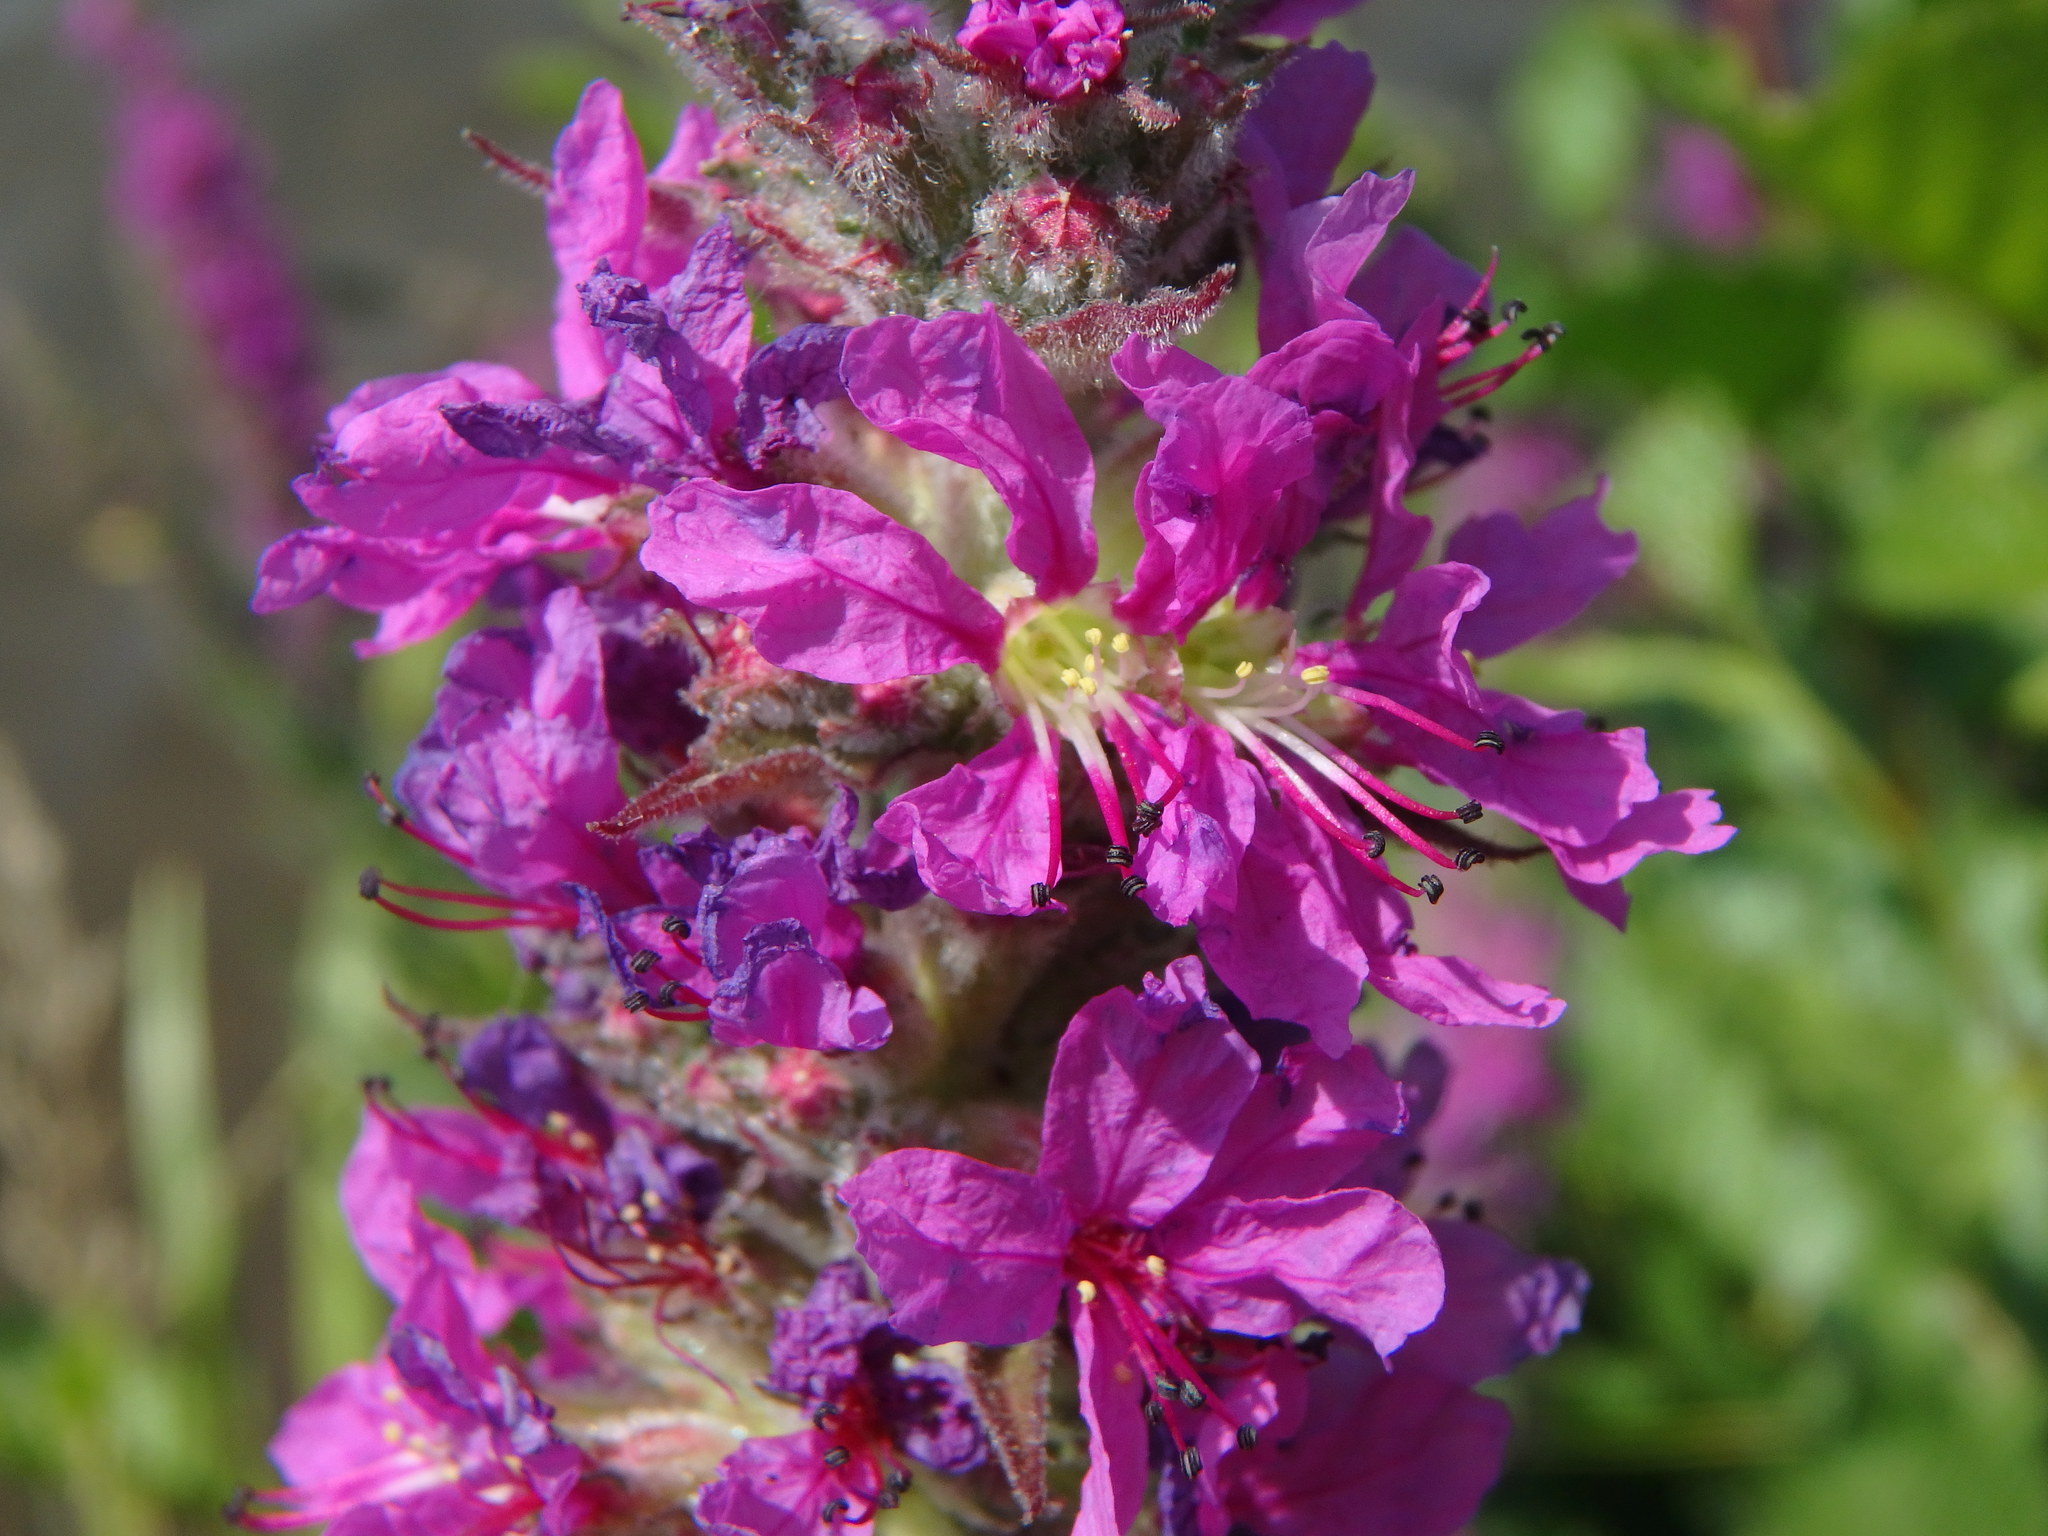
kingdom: Plantae
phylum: Tracheophyta
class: Magnoliopsida
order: Myrtales
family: Lythraceae
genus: Lythrum
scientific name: Lythrum salicaria
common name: Purple loosestrife
